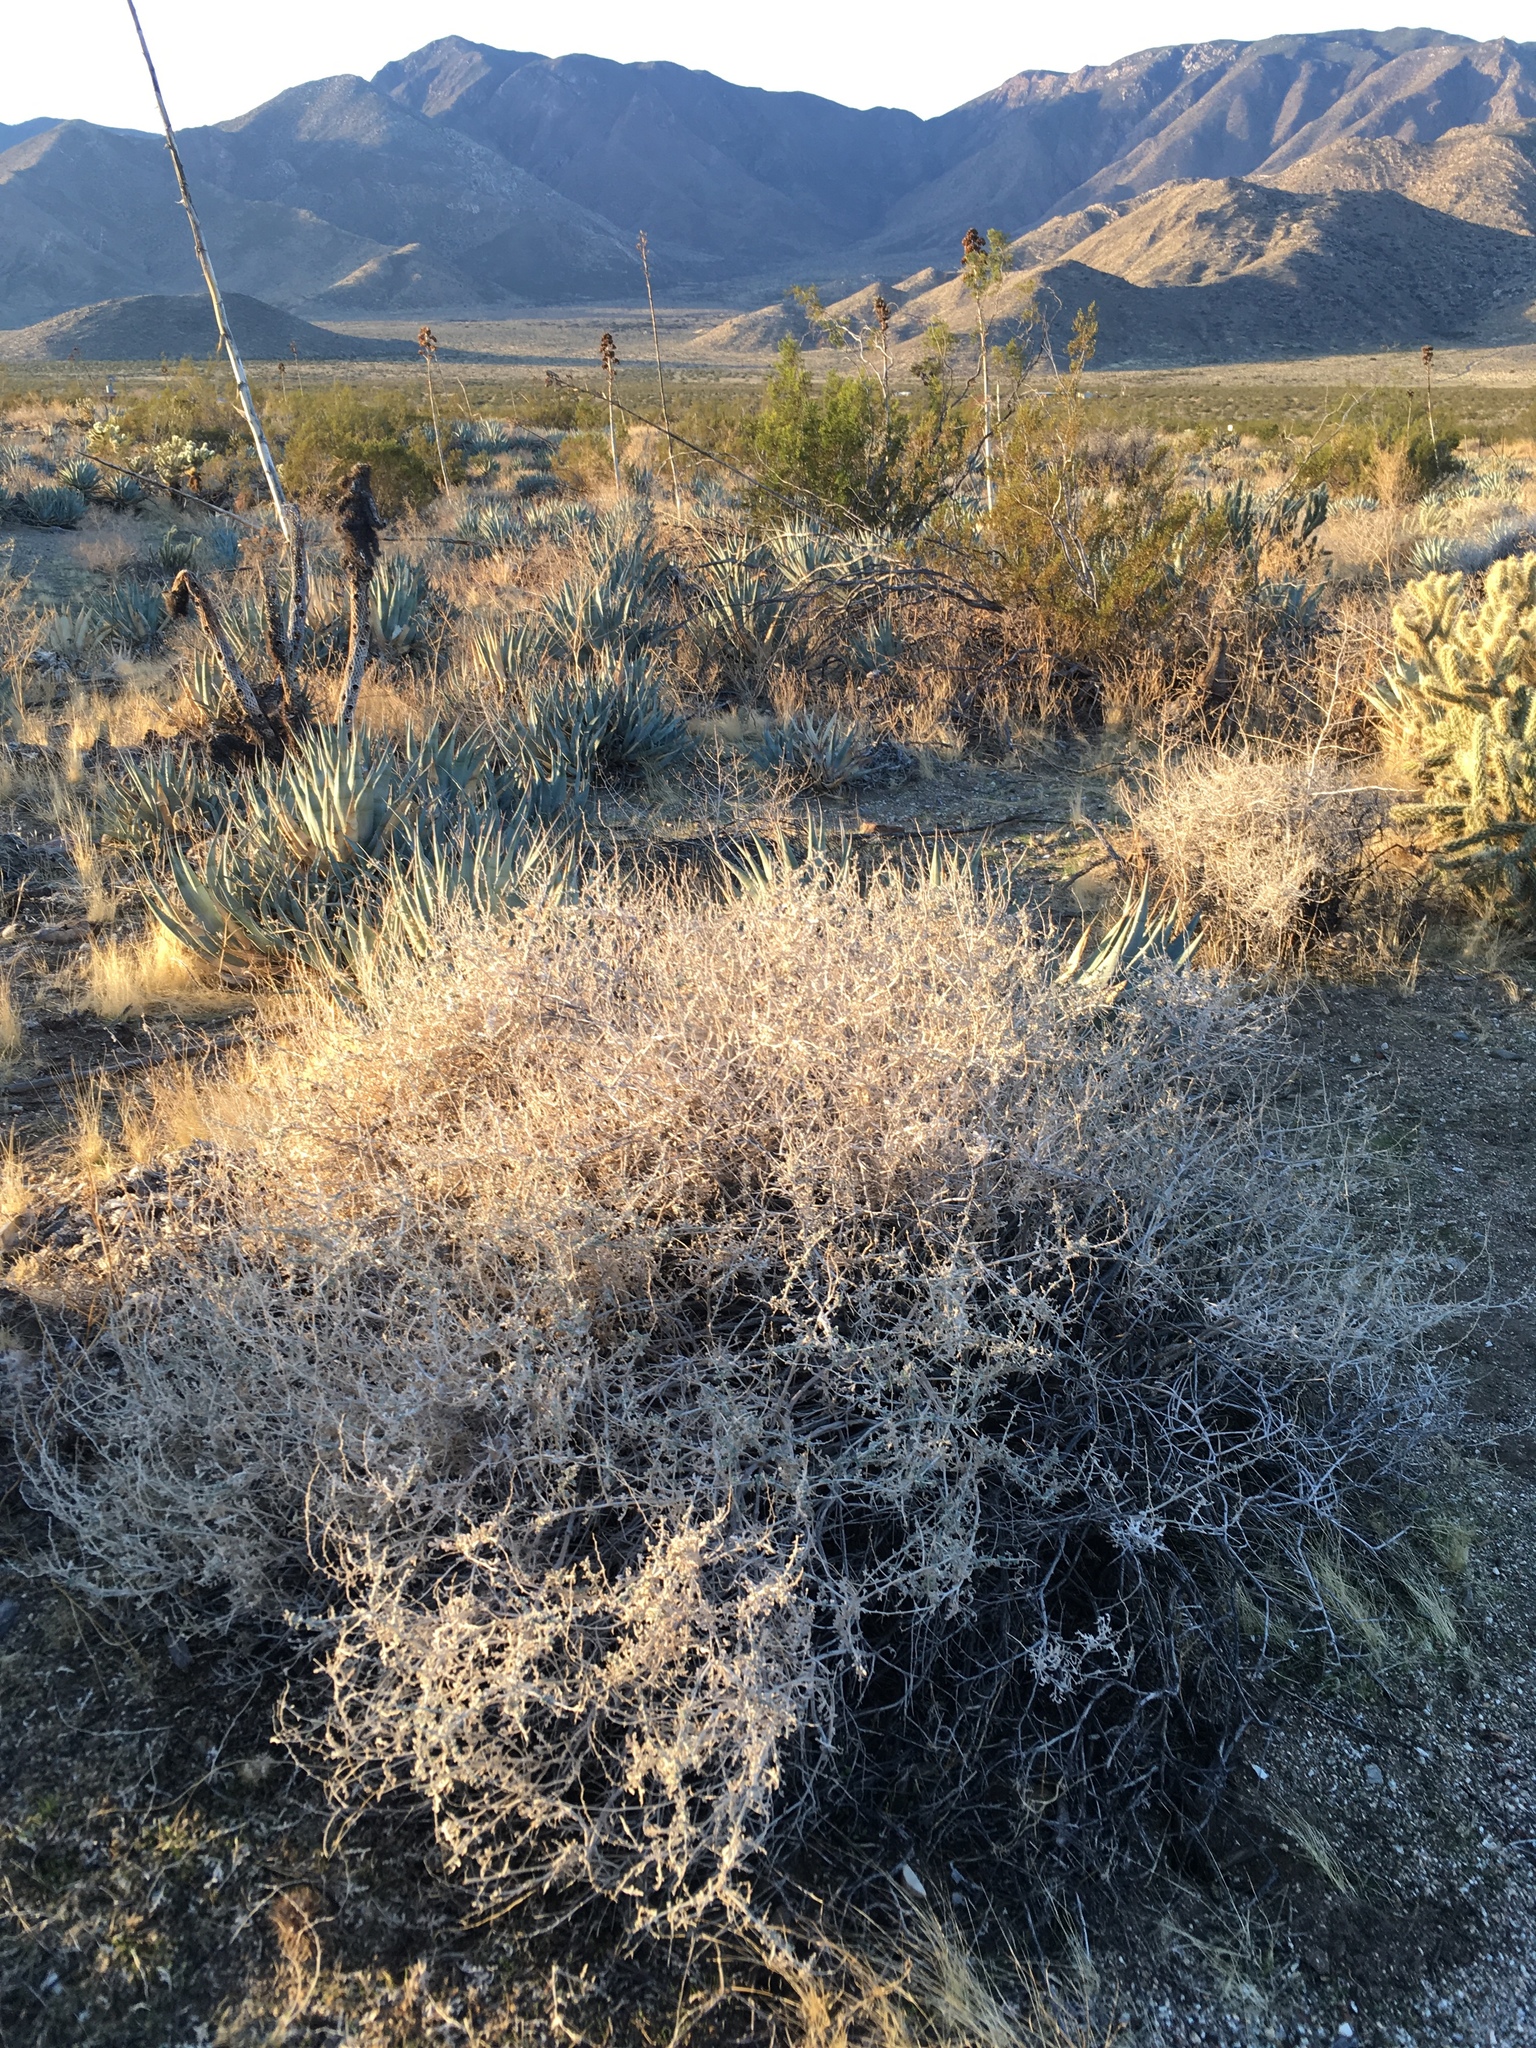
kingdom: Plantae
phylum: Tracheophyta
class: Magnoliopsida
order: Asterales
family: Asteraceae
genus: Ambrosia
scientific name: Ambrosia dumosa
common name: Bur-sage
